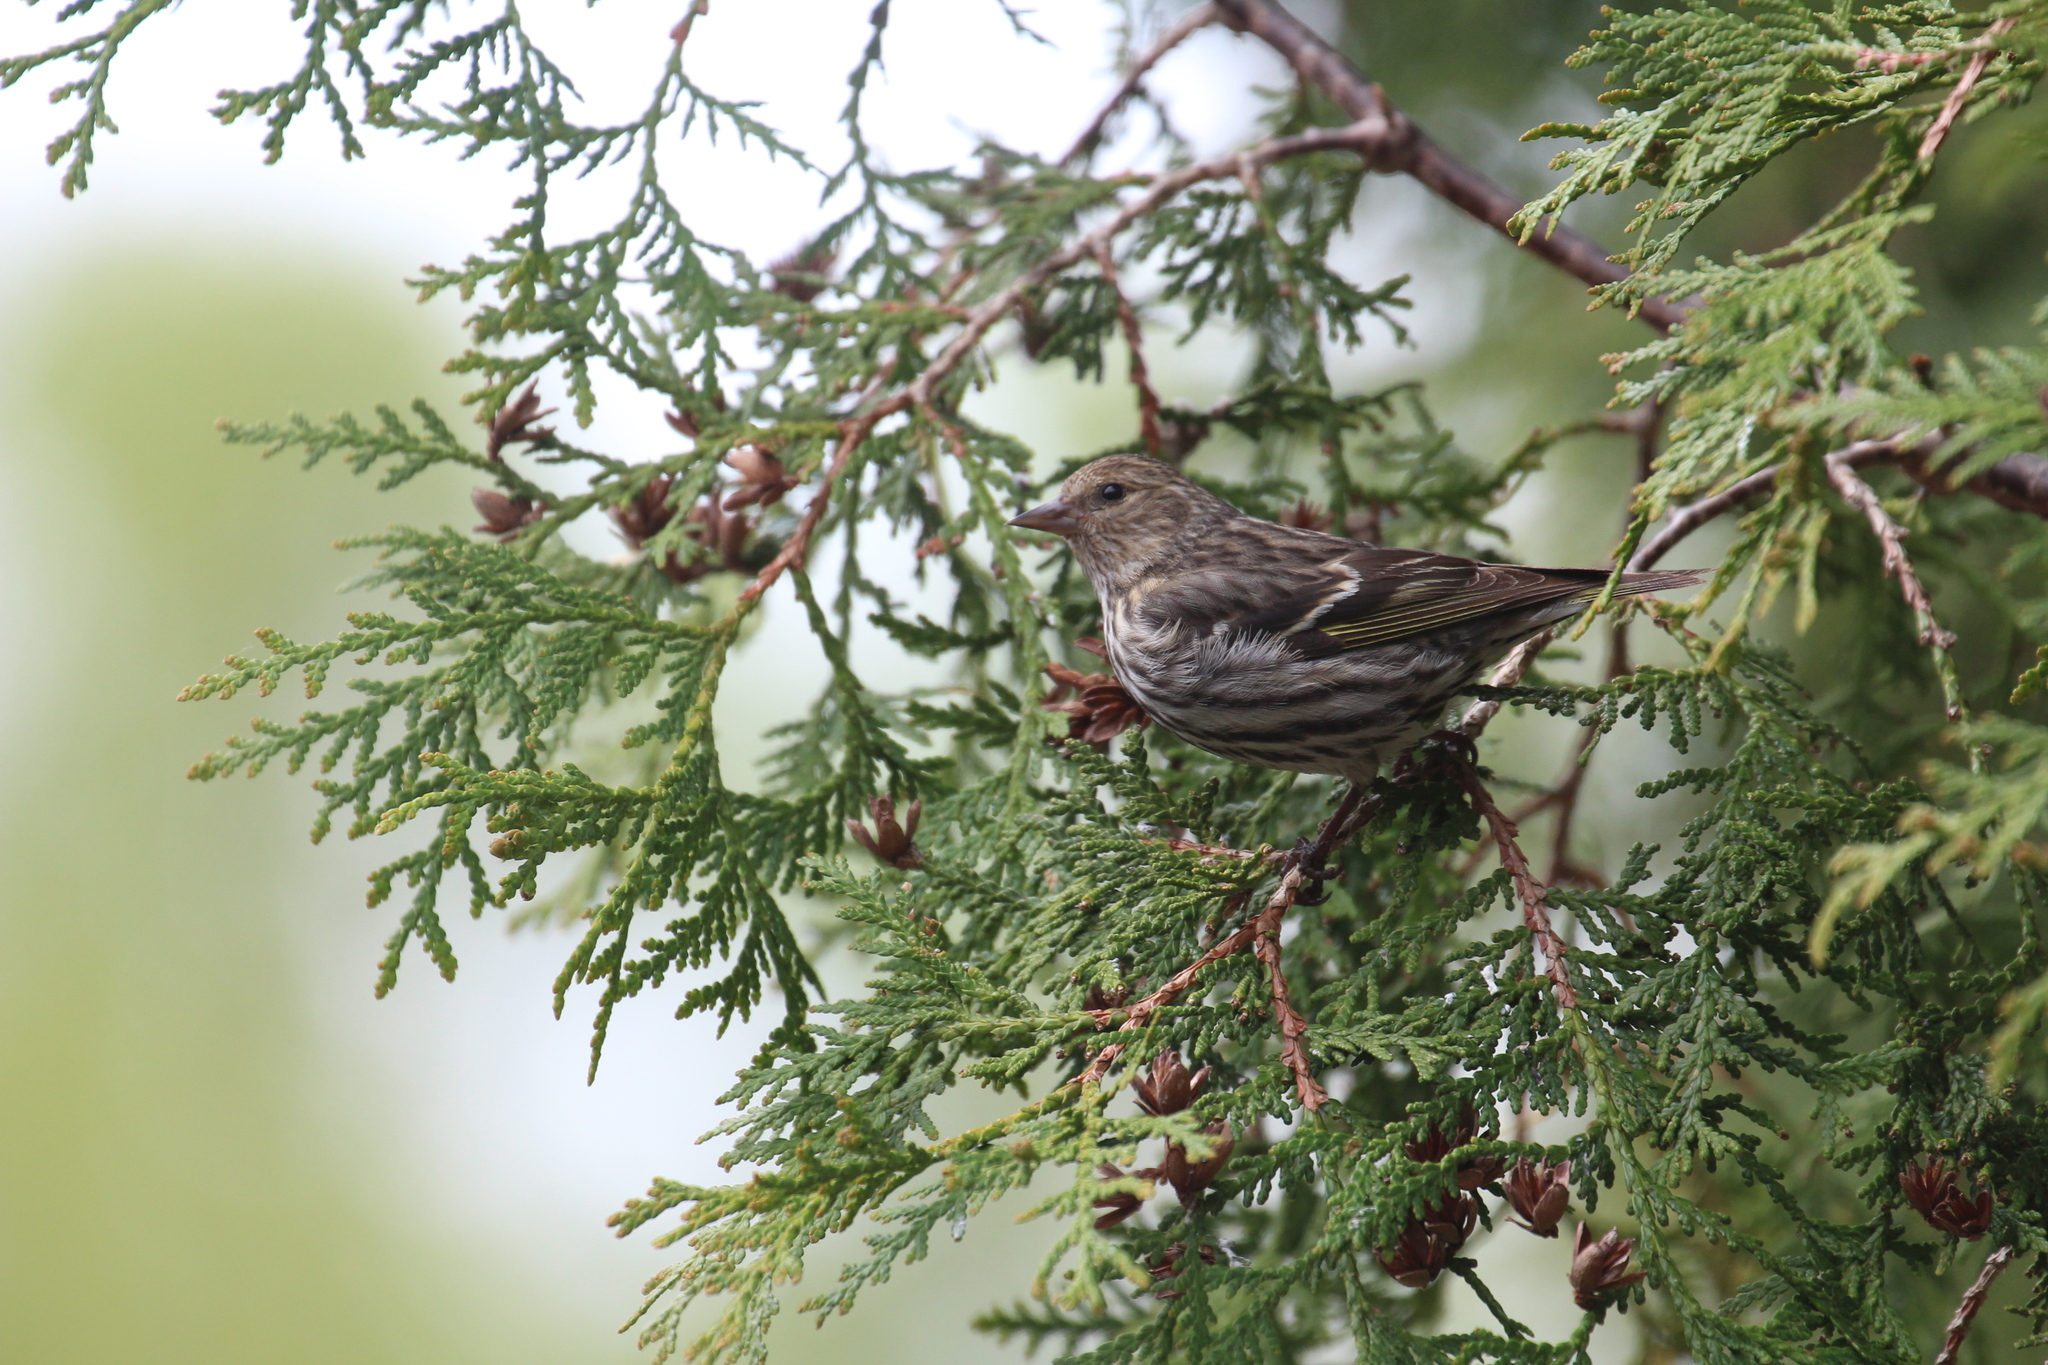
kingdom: Animalia
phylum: Chordata
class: Aves
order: Passeriformes
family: Fringillidae
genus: Spinus
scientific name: Spinus pinus
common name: Pine siskin
